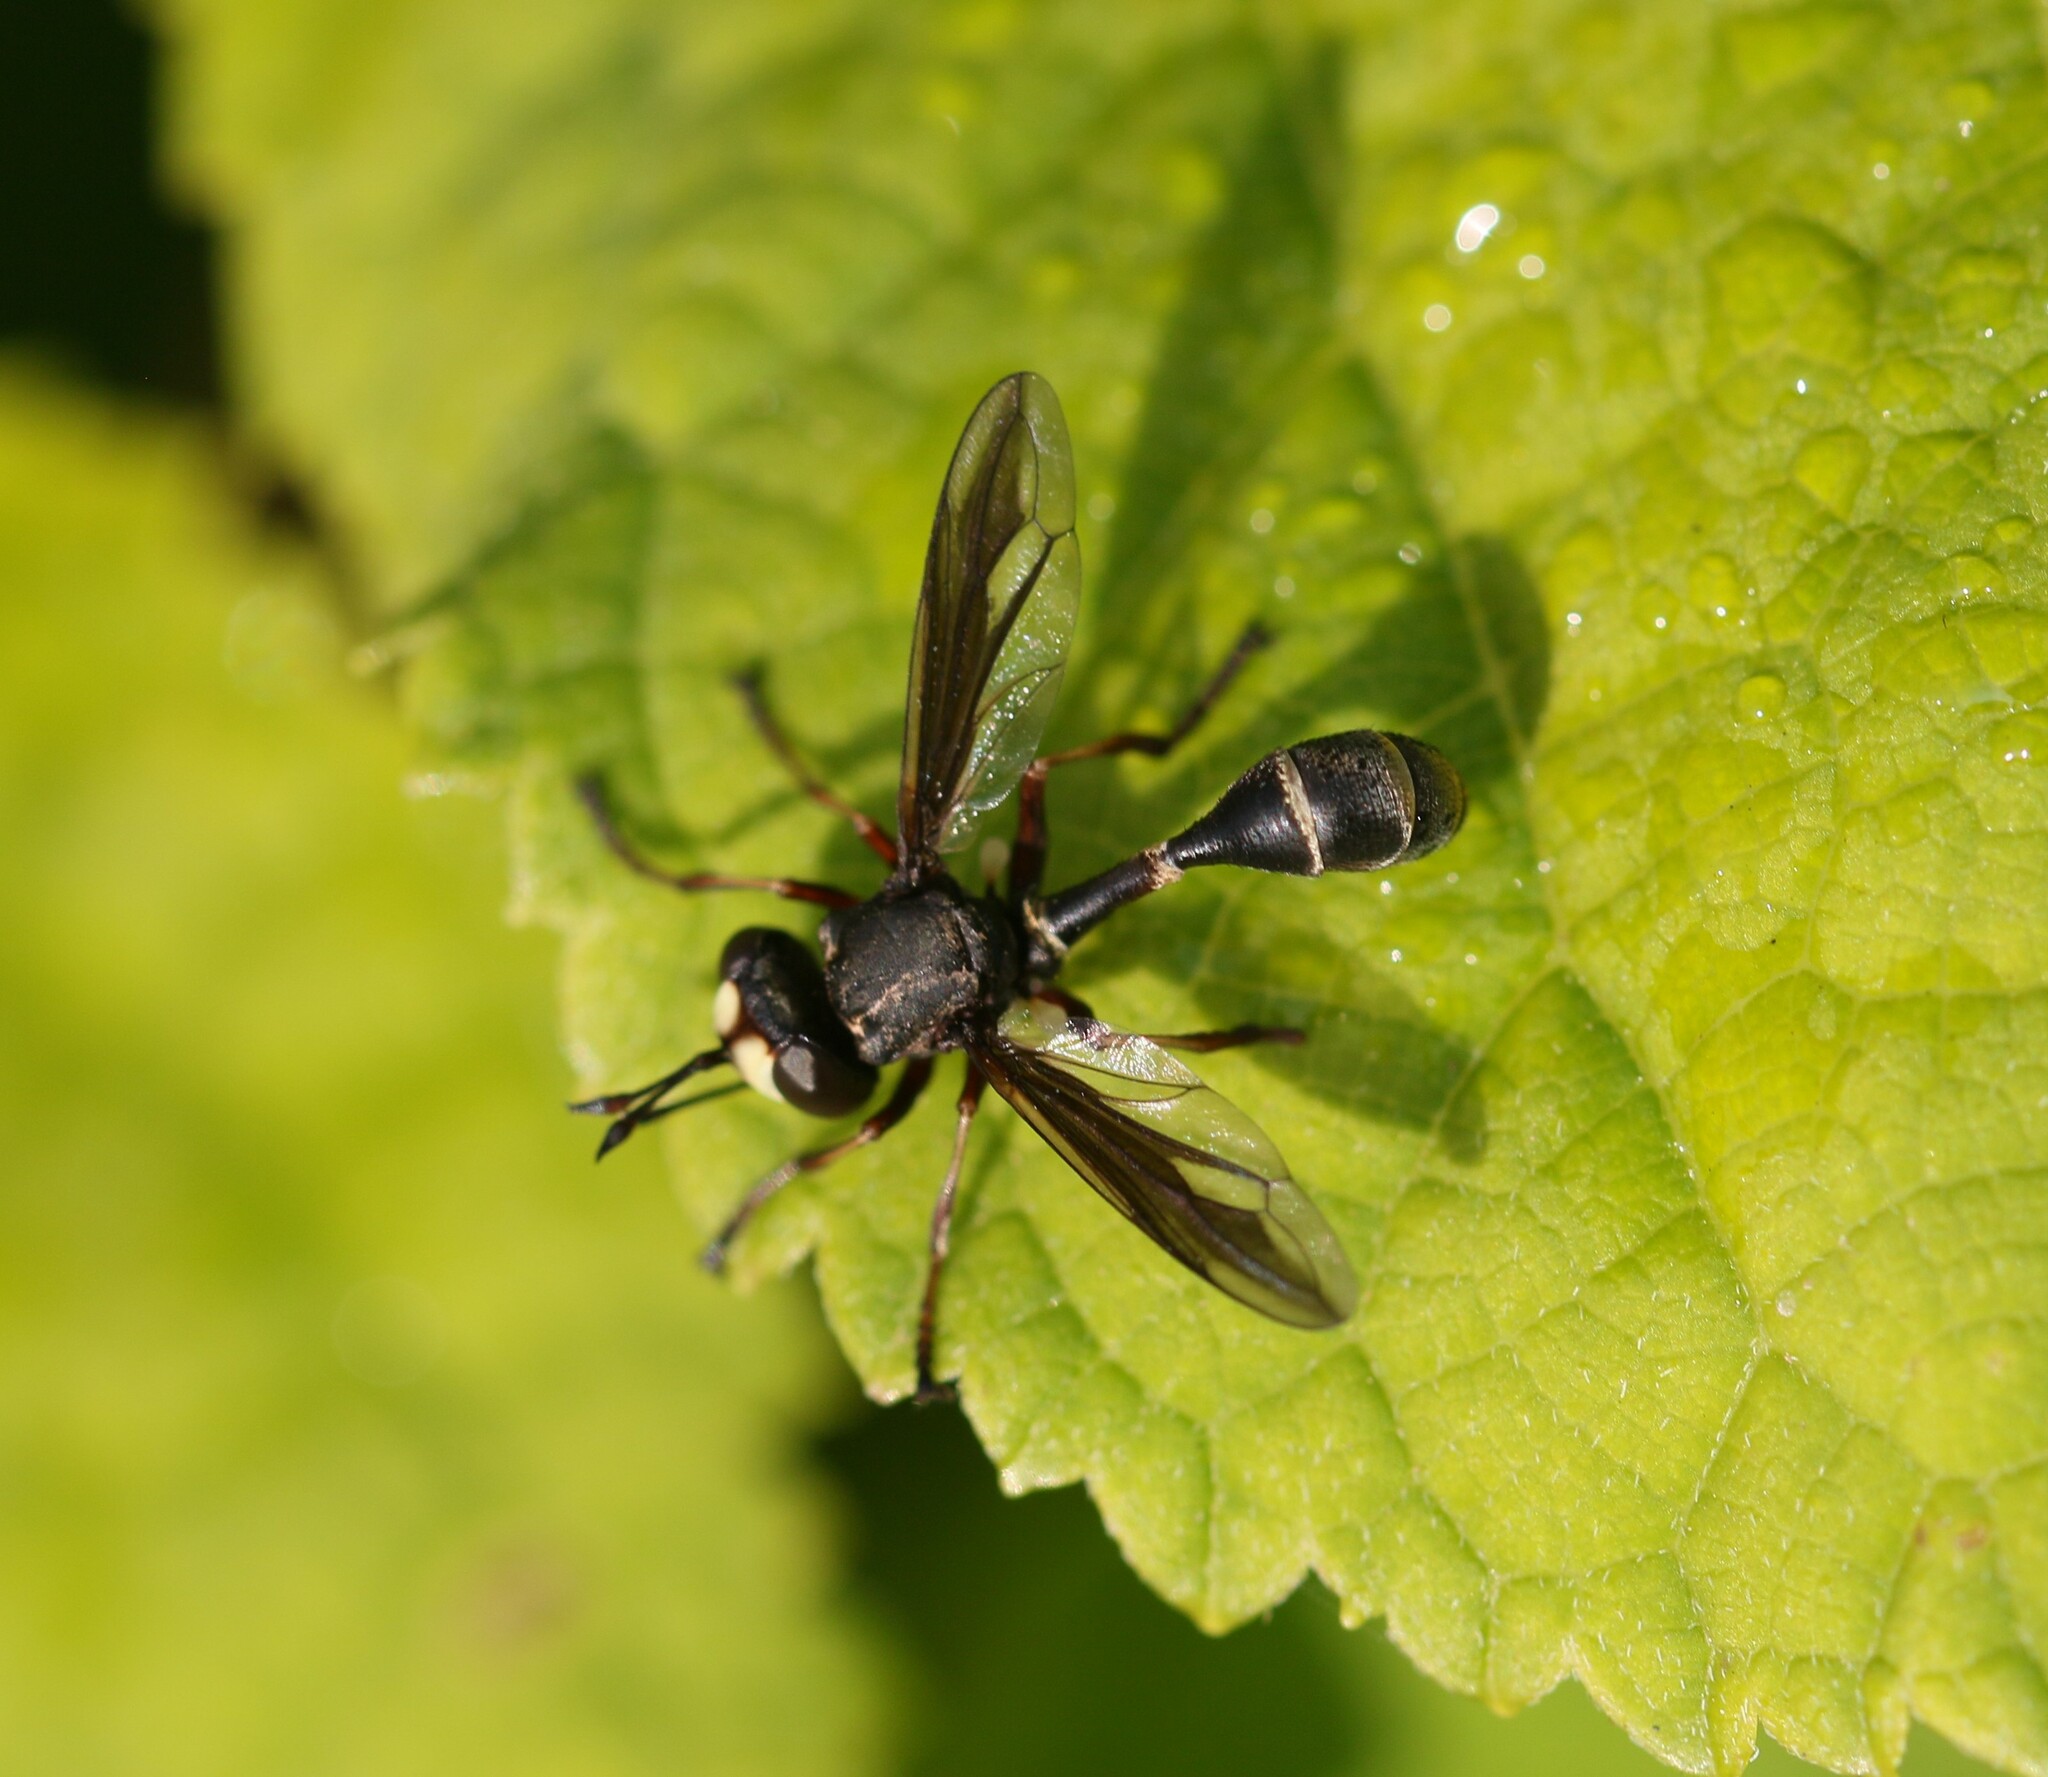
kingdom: Animalia
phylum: Arthropoda
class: Insecta
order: Diptera
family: Conopidae
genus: Physocephala
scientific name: Physocephala furcillata
